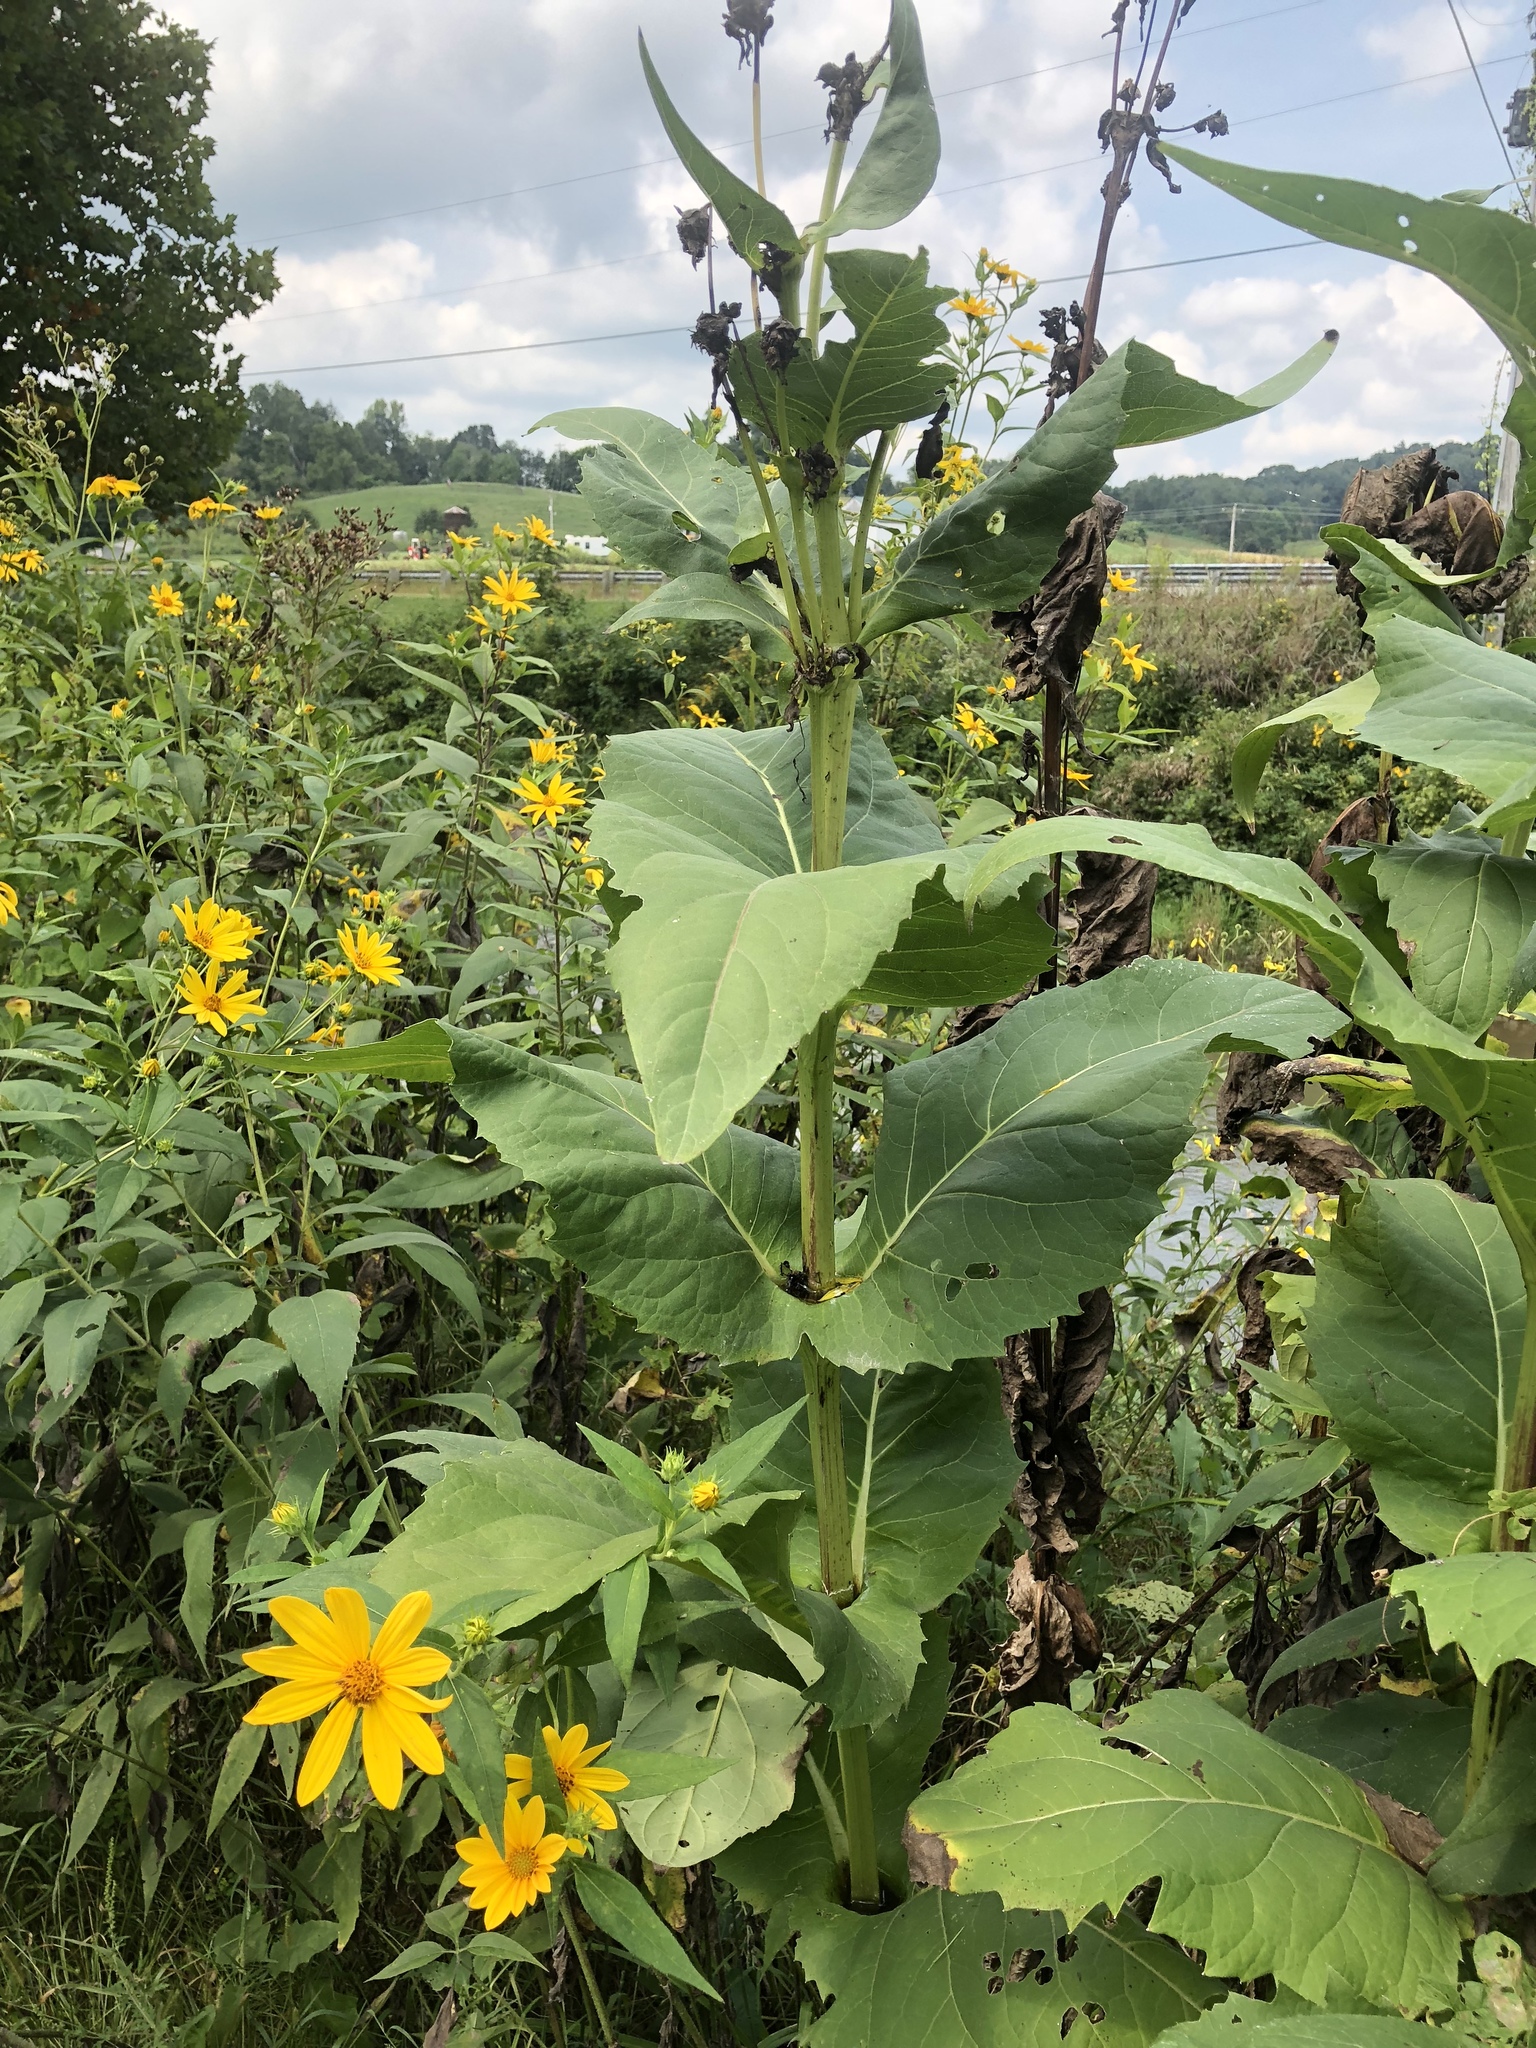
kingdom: Plantae
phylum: Tracheophyta
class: Magnoliopsida
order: Asterales
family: Asteraceae
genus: Silphium
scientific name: Silphium perfoliatum
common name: Cup-plant
